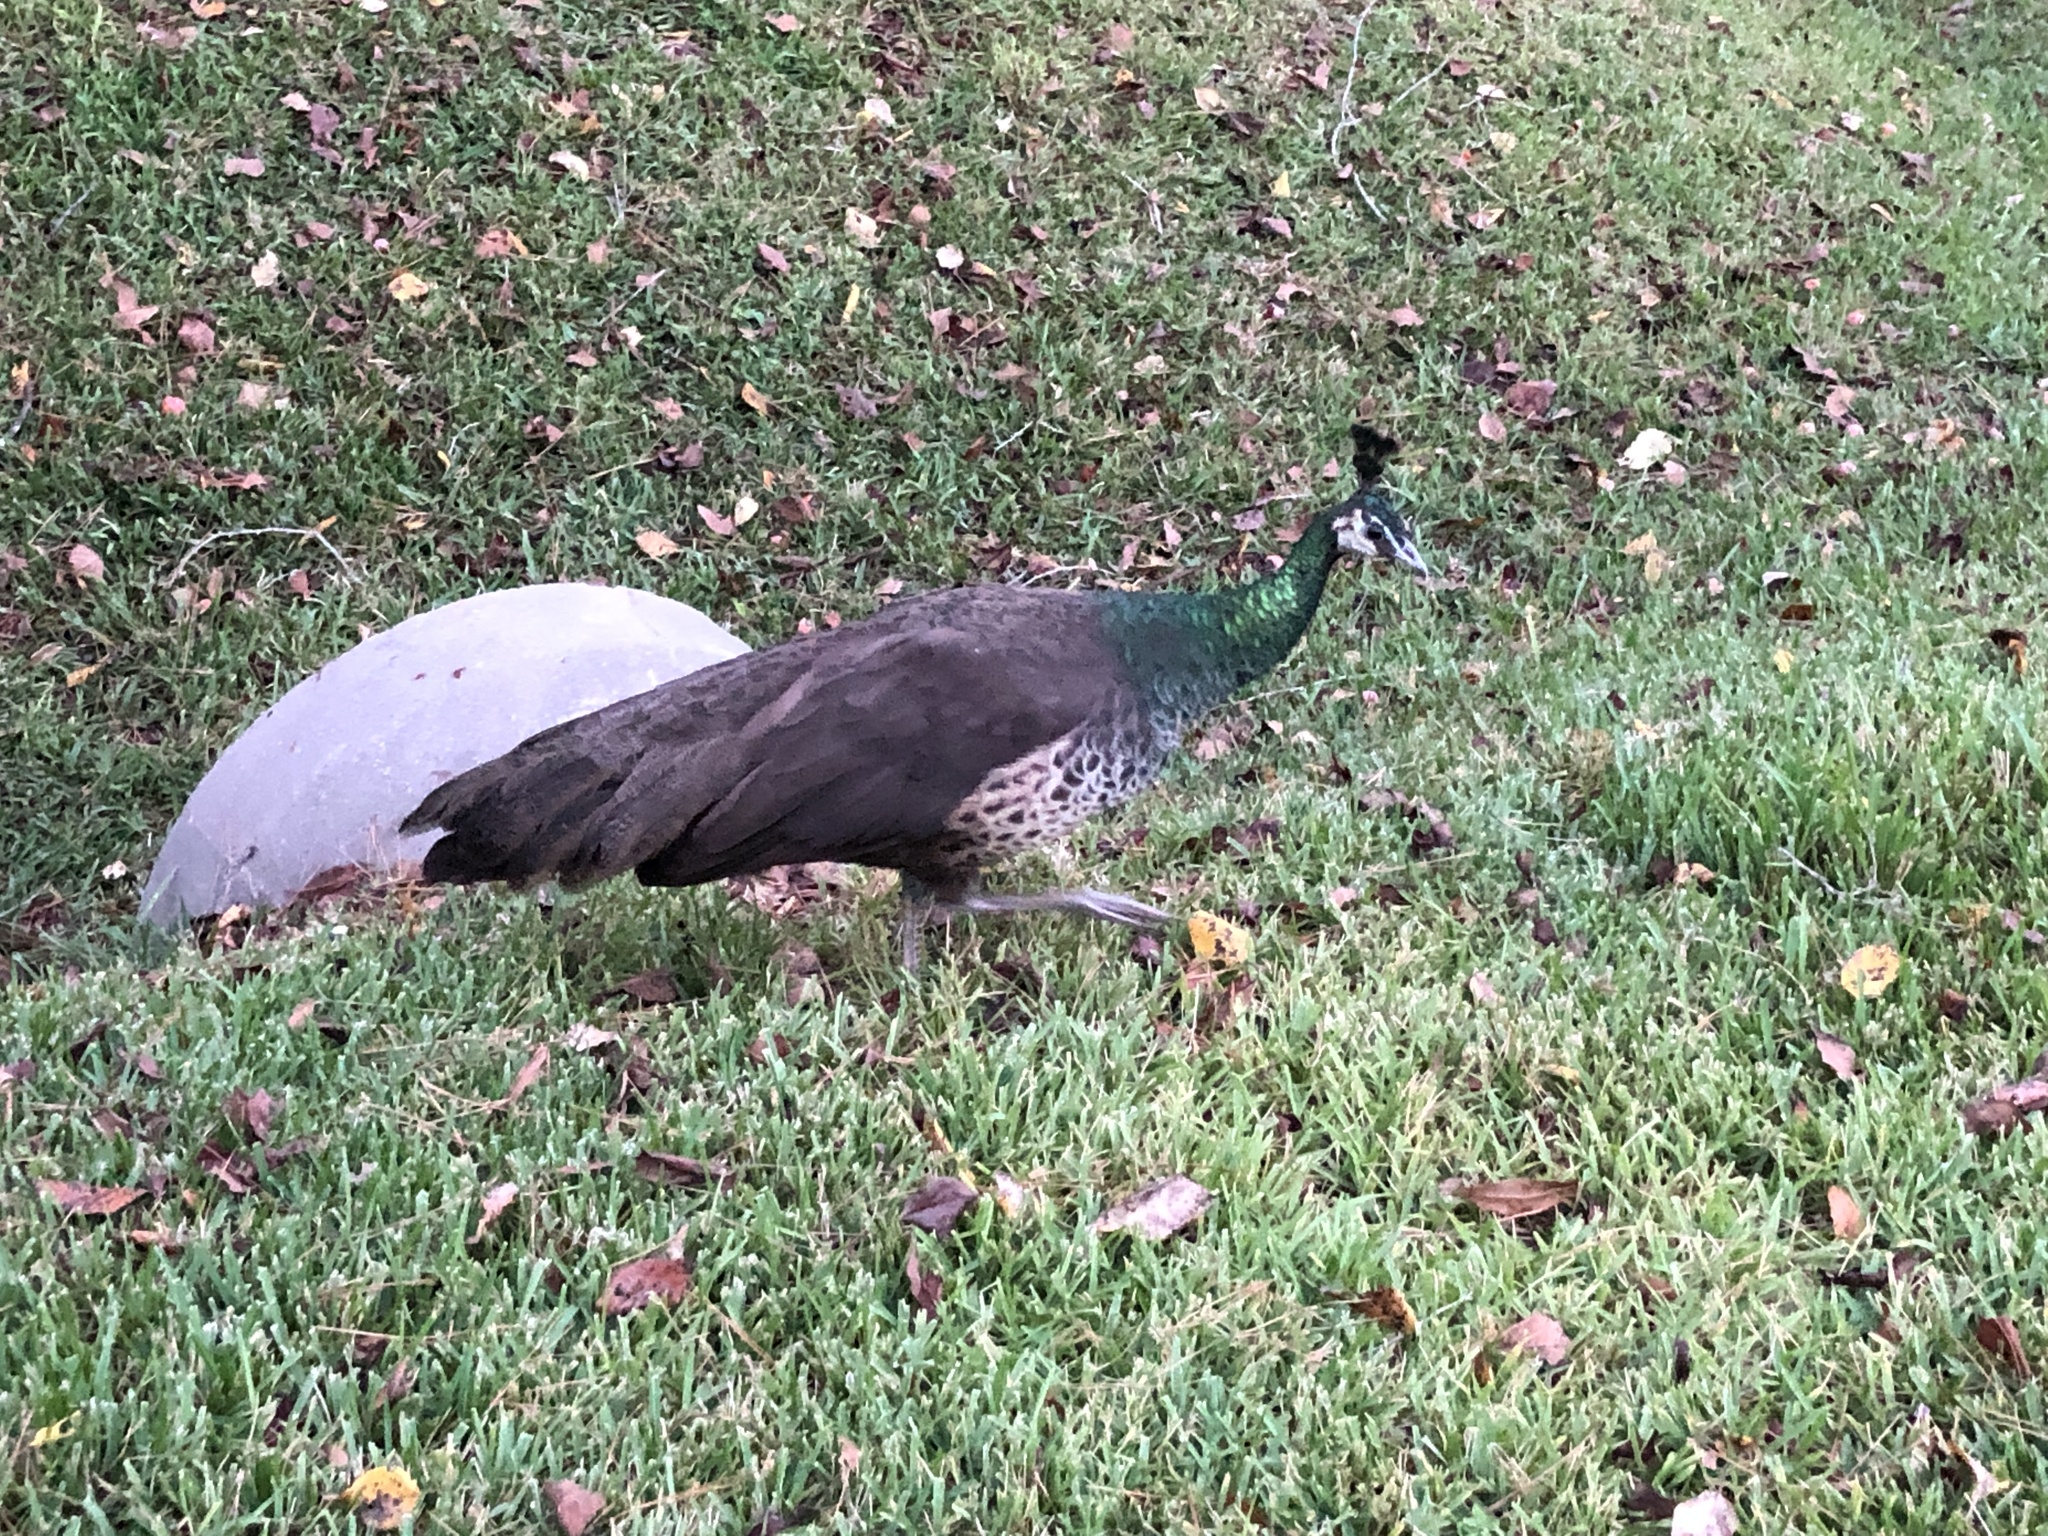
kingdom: Animalia
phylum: Chordata
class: Aves
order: Galliformes
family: Phasianidae
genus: Pavo
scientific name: Pavo cristatus
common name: Indian peafowl
